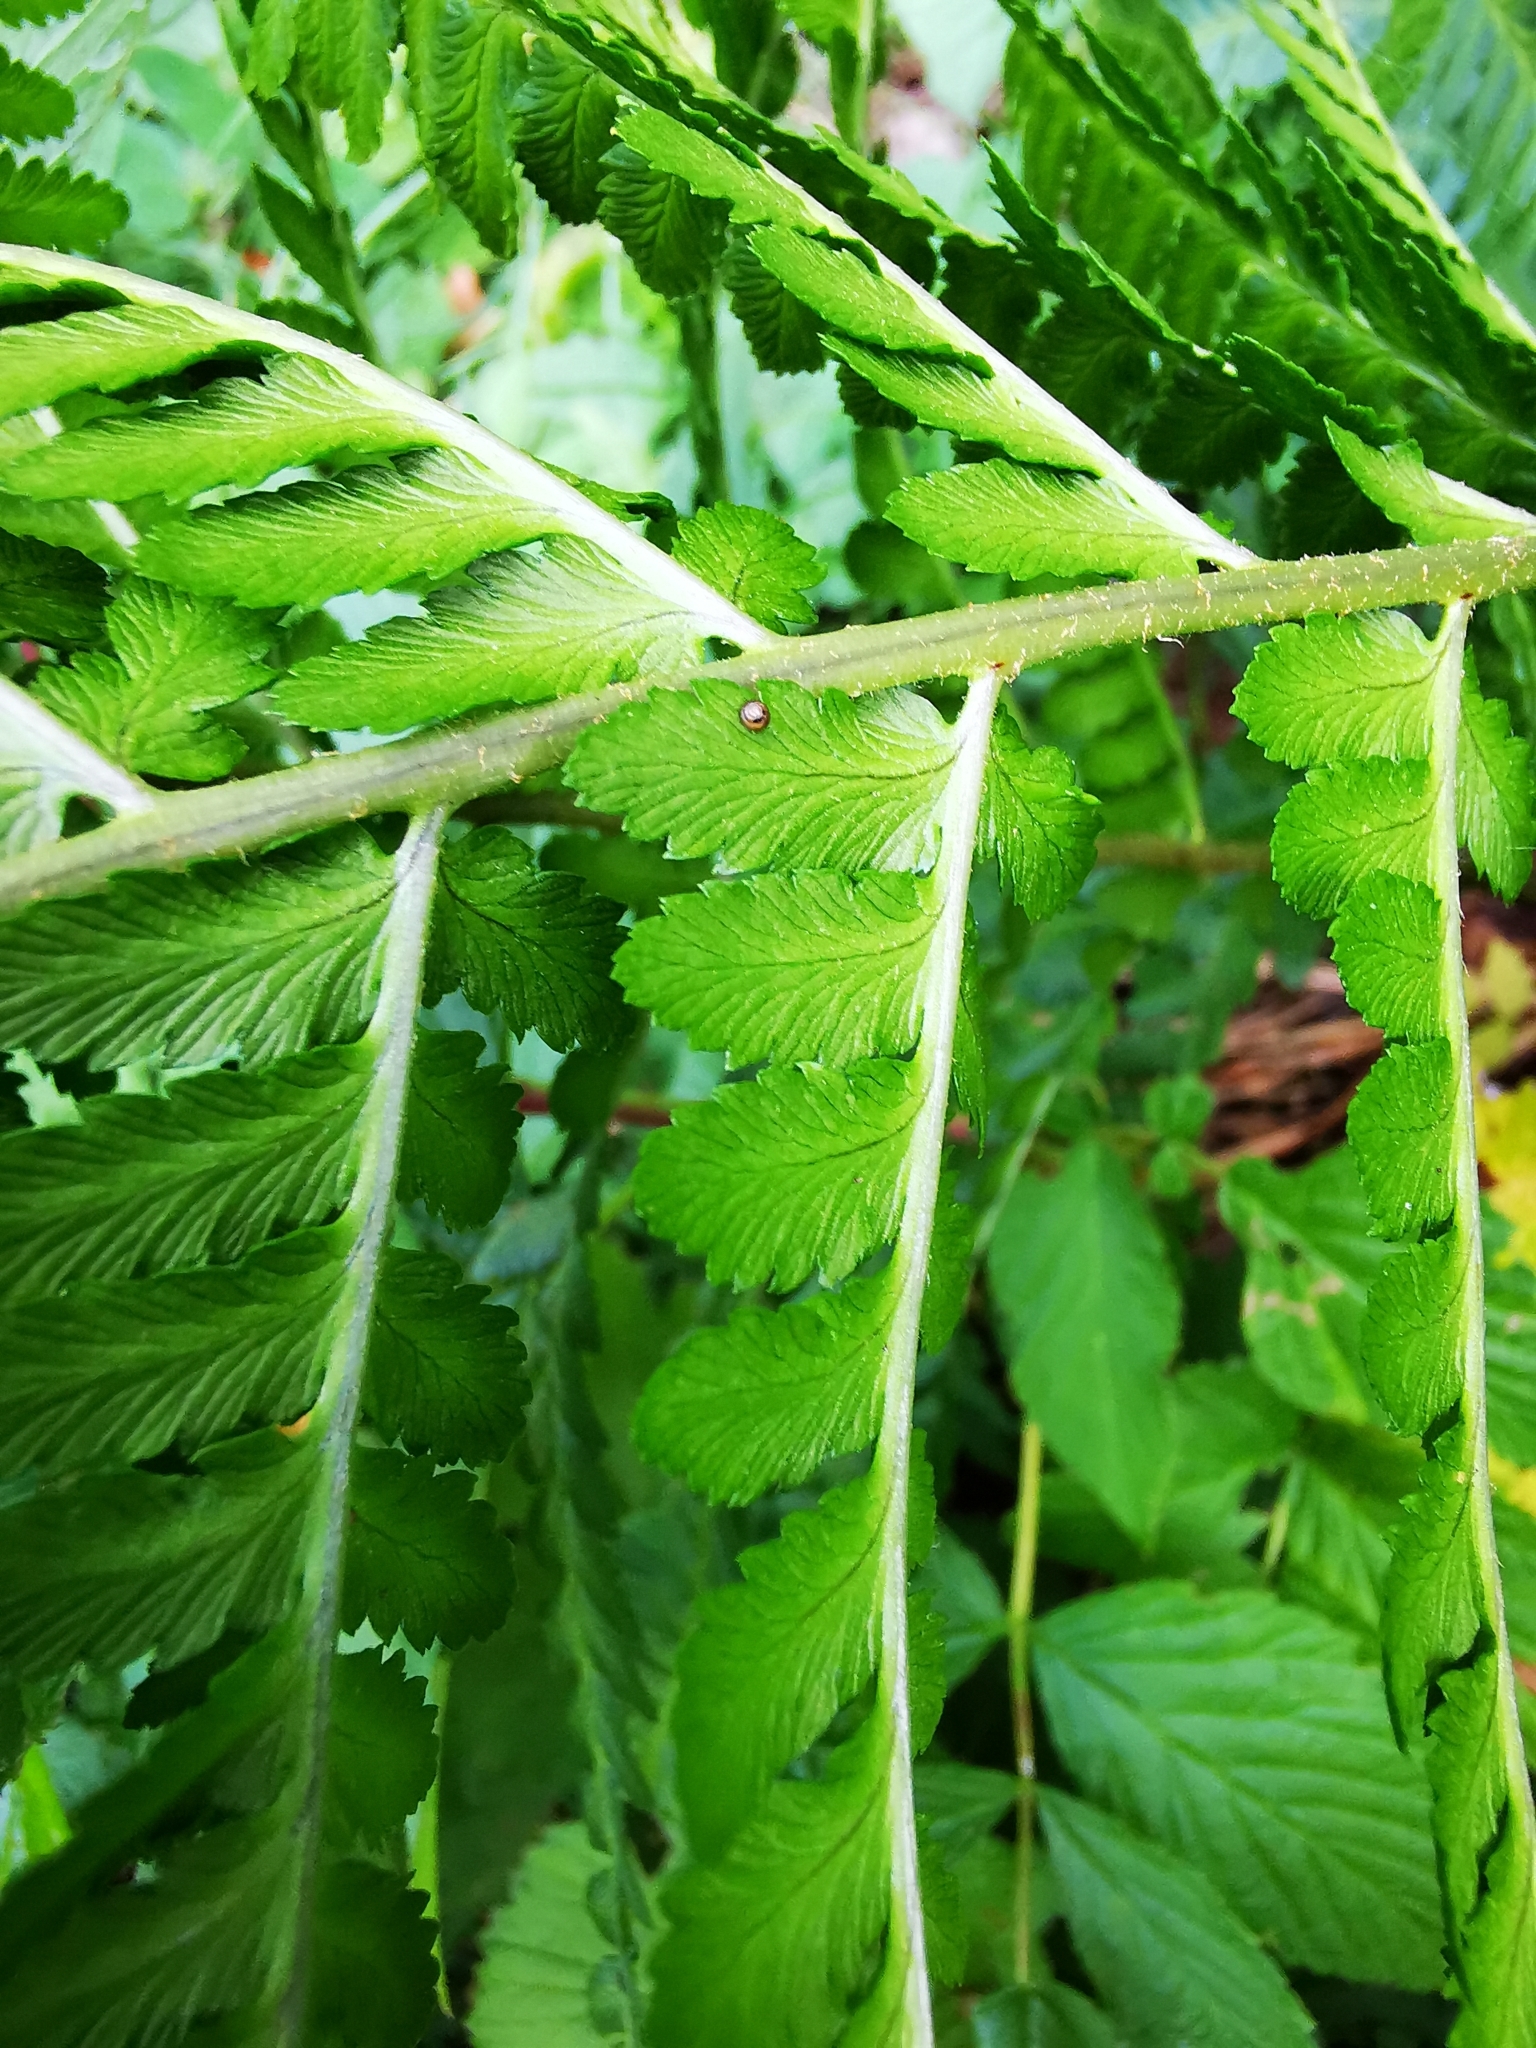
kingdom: Plantae
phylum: Tracheophyta
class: Polypodiopsida
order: Polypodiales
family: Dryopteridaceae
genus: Dryopteris
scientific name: Dryopteris filix-mas
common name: Male fern
